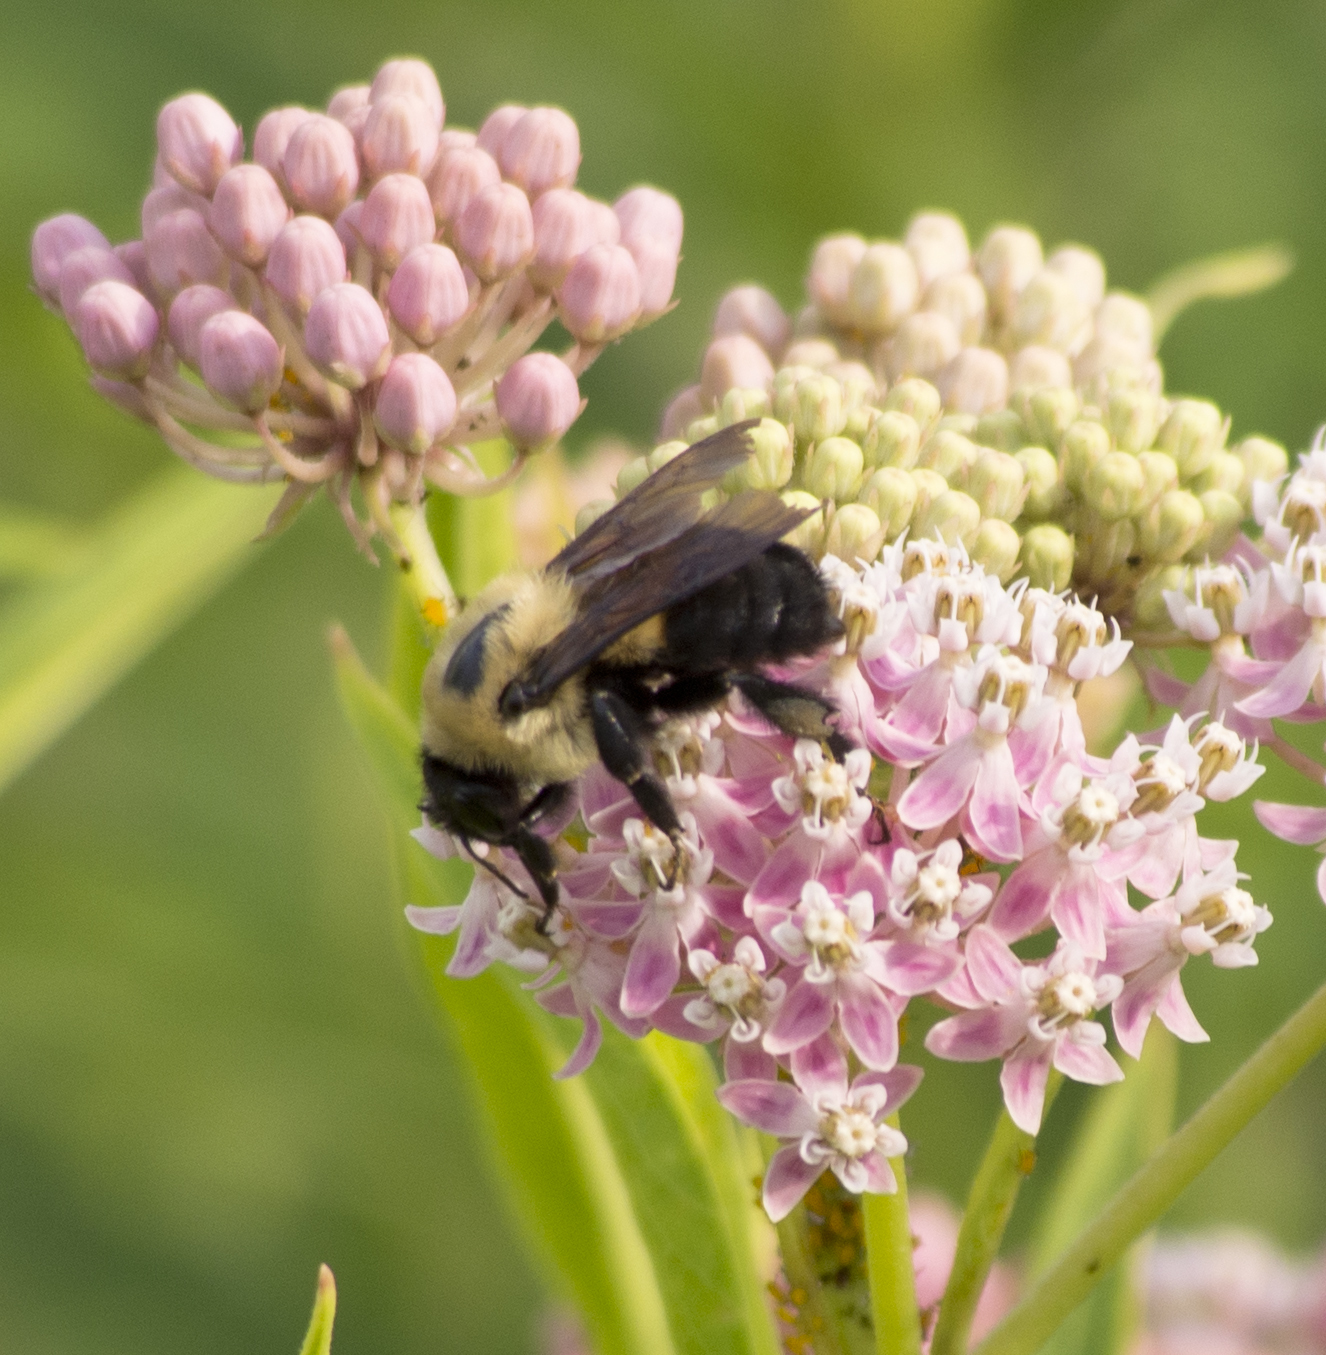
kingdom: Animalia
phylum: Arthropoda
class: Insecta
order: Hymenoptera
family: Apidae
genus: Bombus
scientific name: Bombus griseocollis
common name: Brown-belted bumble bee
